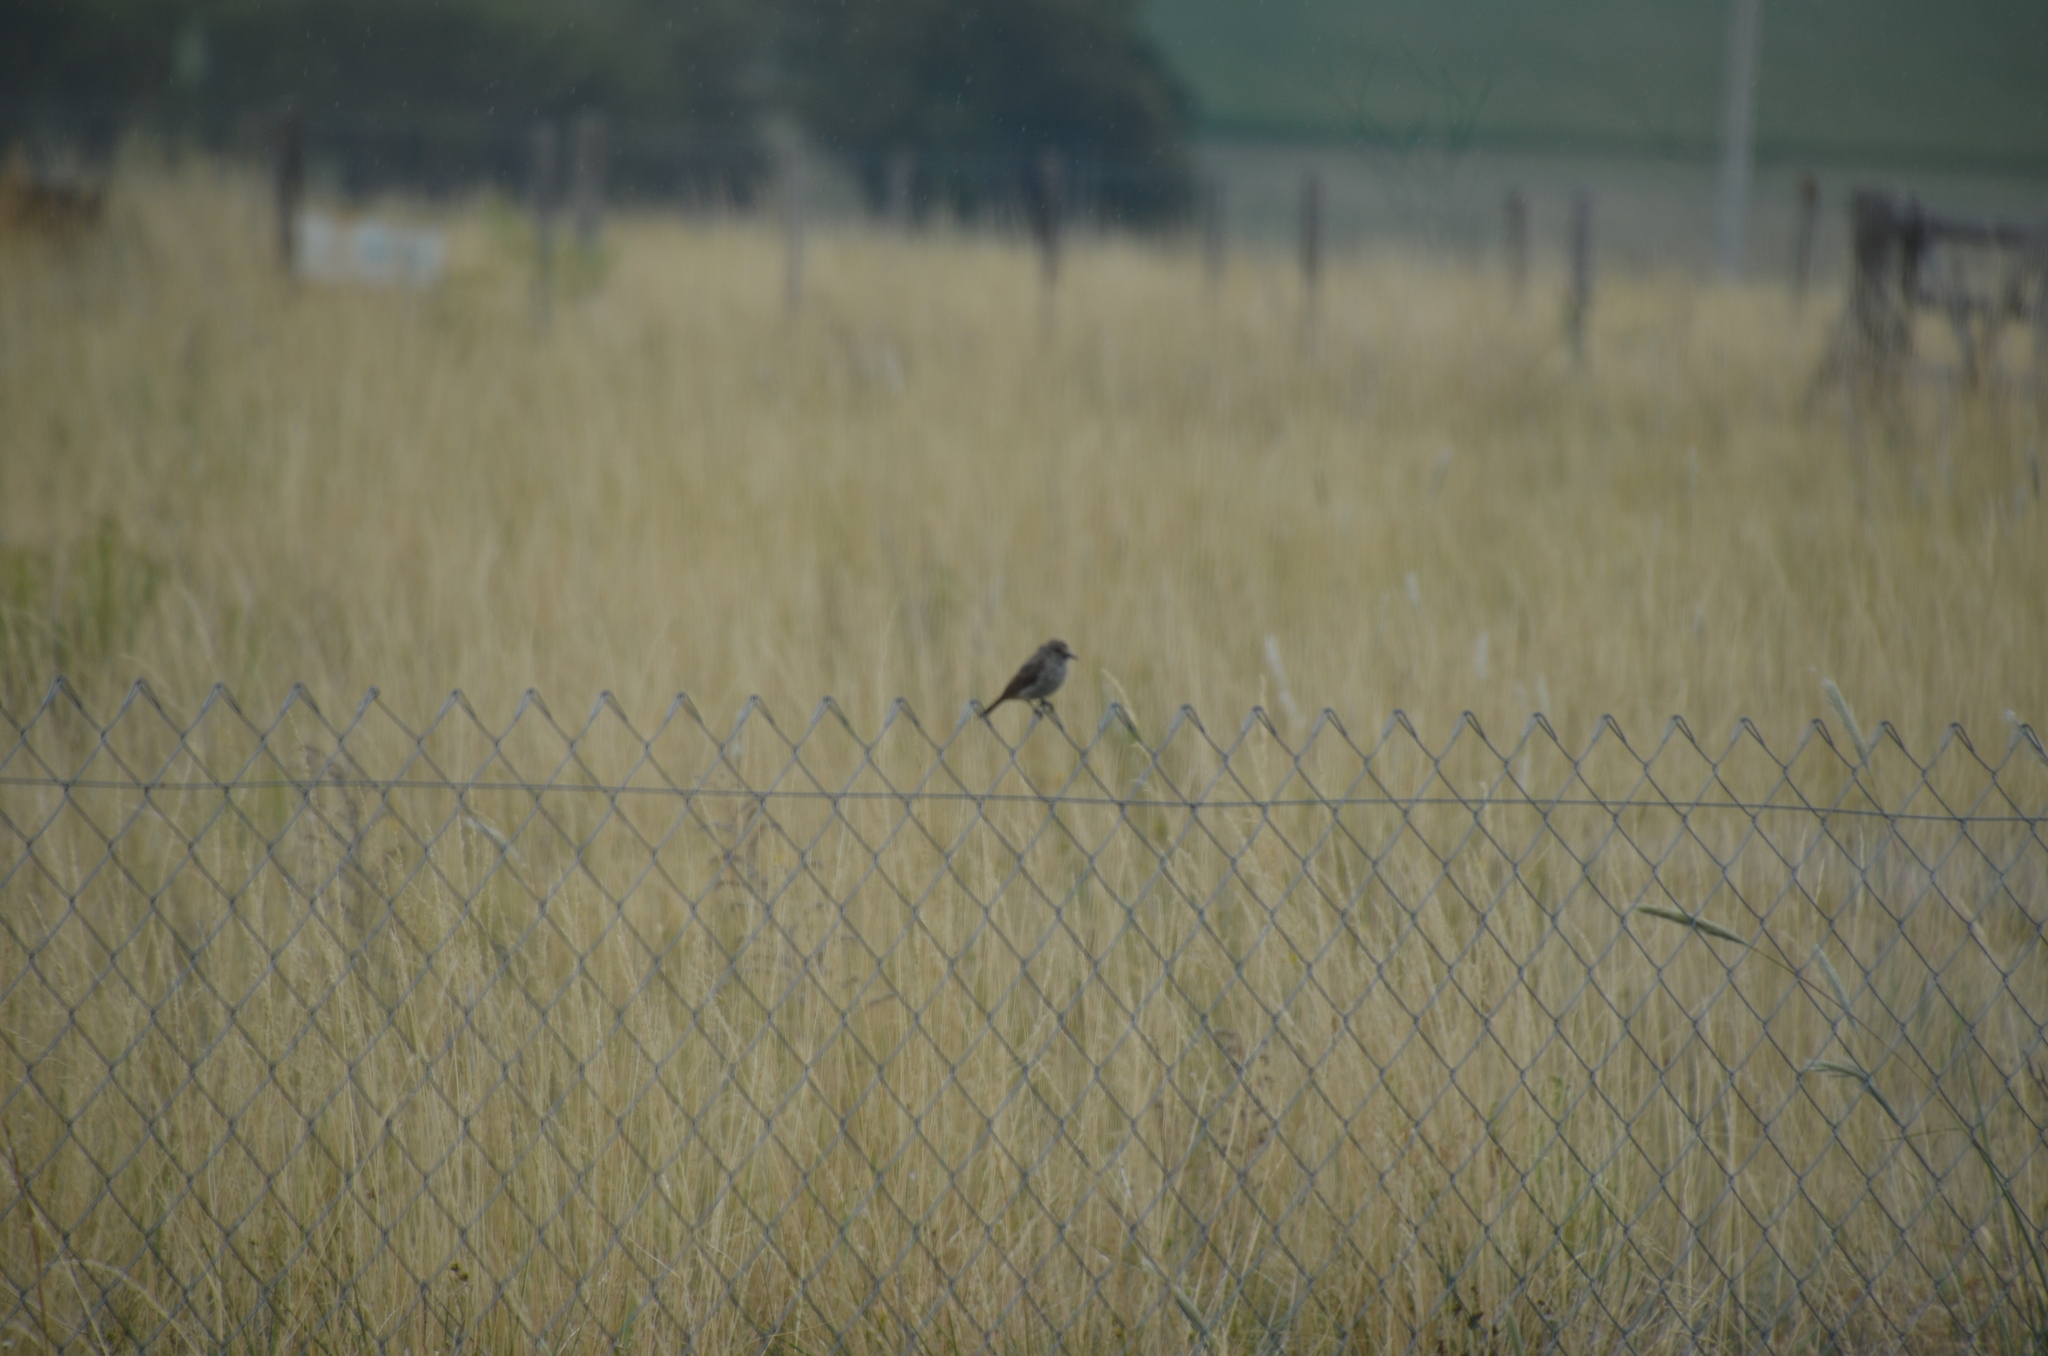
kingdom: Animalia
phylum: Chordata
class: Aves
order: Passeriformes
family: Tyrannidae
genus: Pyrocephalus
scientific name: Pyrocephalus rubinus
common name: Vermilion flycatcher
